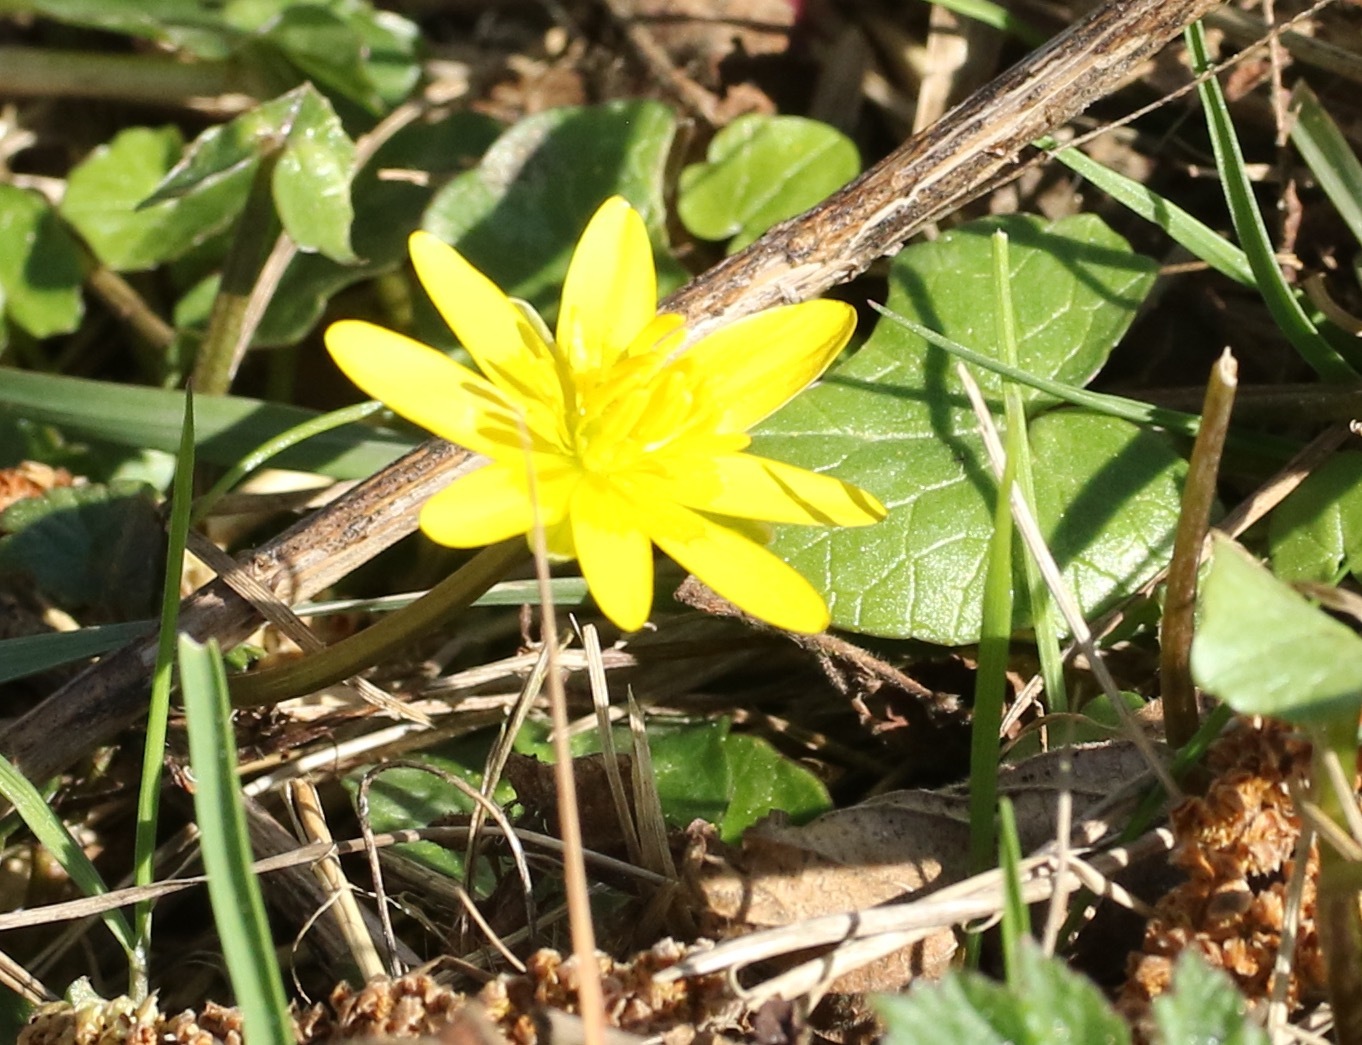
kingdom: Plantae
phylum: Tracheophyta
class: Magnoliopsida
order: Ranunculales
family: Ranunculaceae
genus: Ficaria
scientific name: Ficaria verna
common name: Lesser celandine
